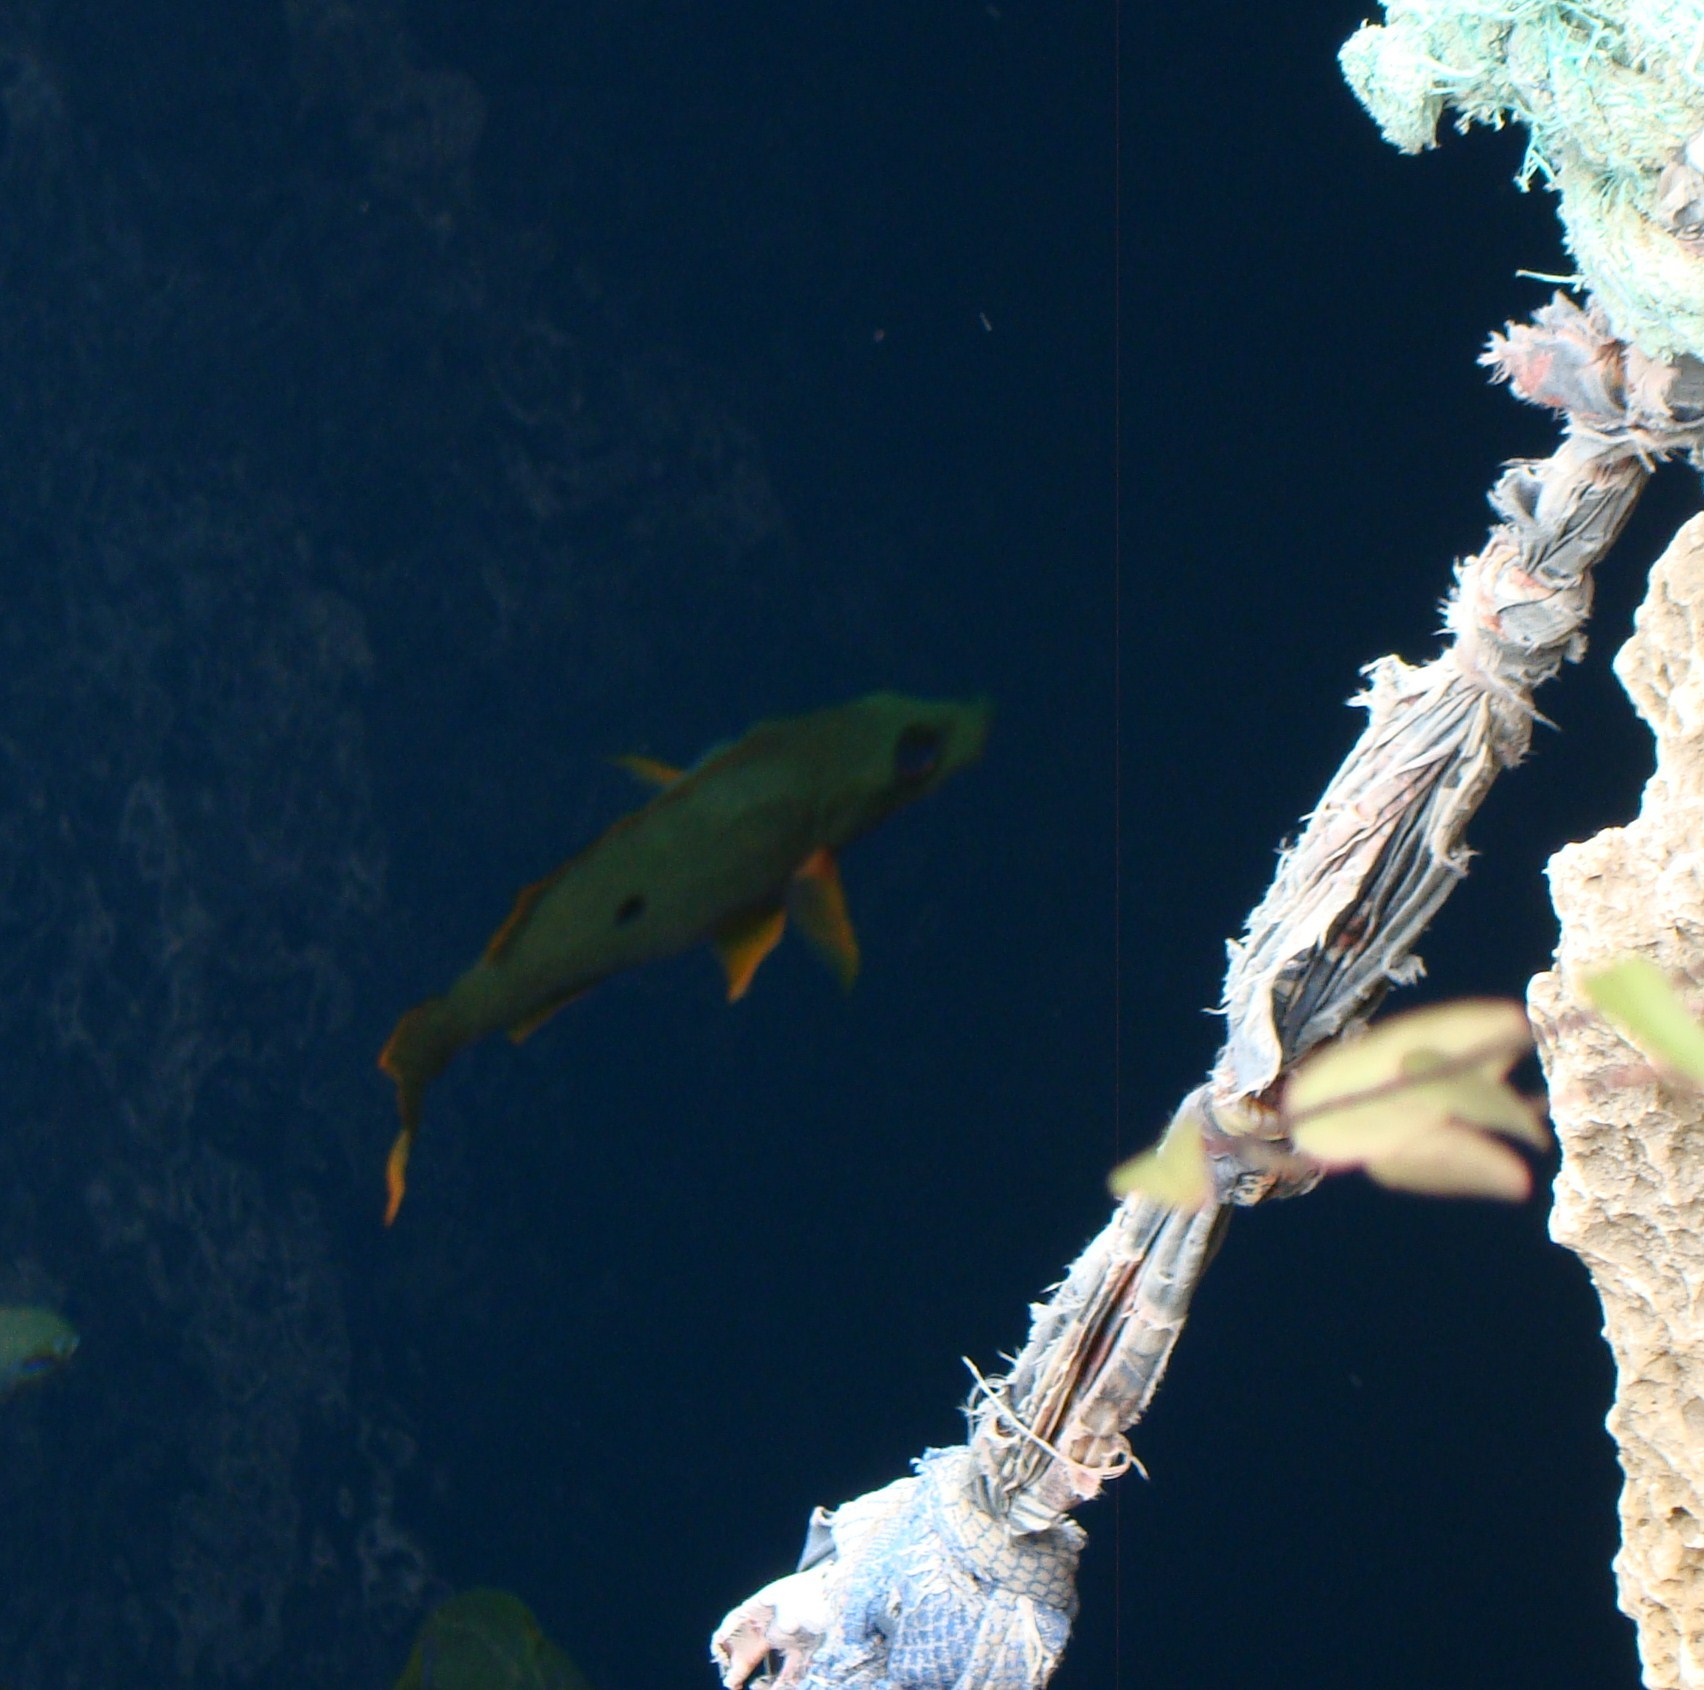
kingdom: Animalia
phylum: Chordata
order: Perciformes
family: Lutjanidae
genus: Lutjanus
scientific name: Lutjanus monostigma
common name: Onespot snapper
